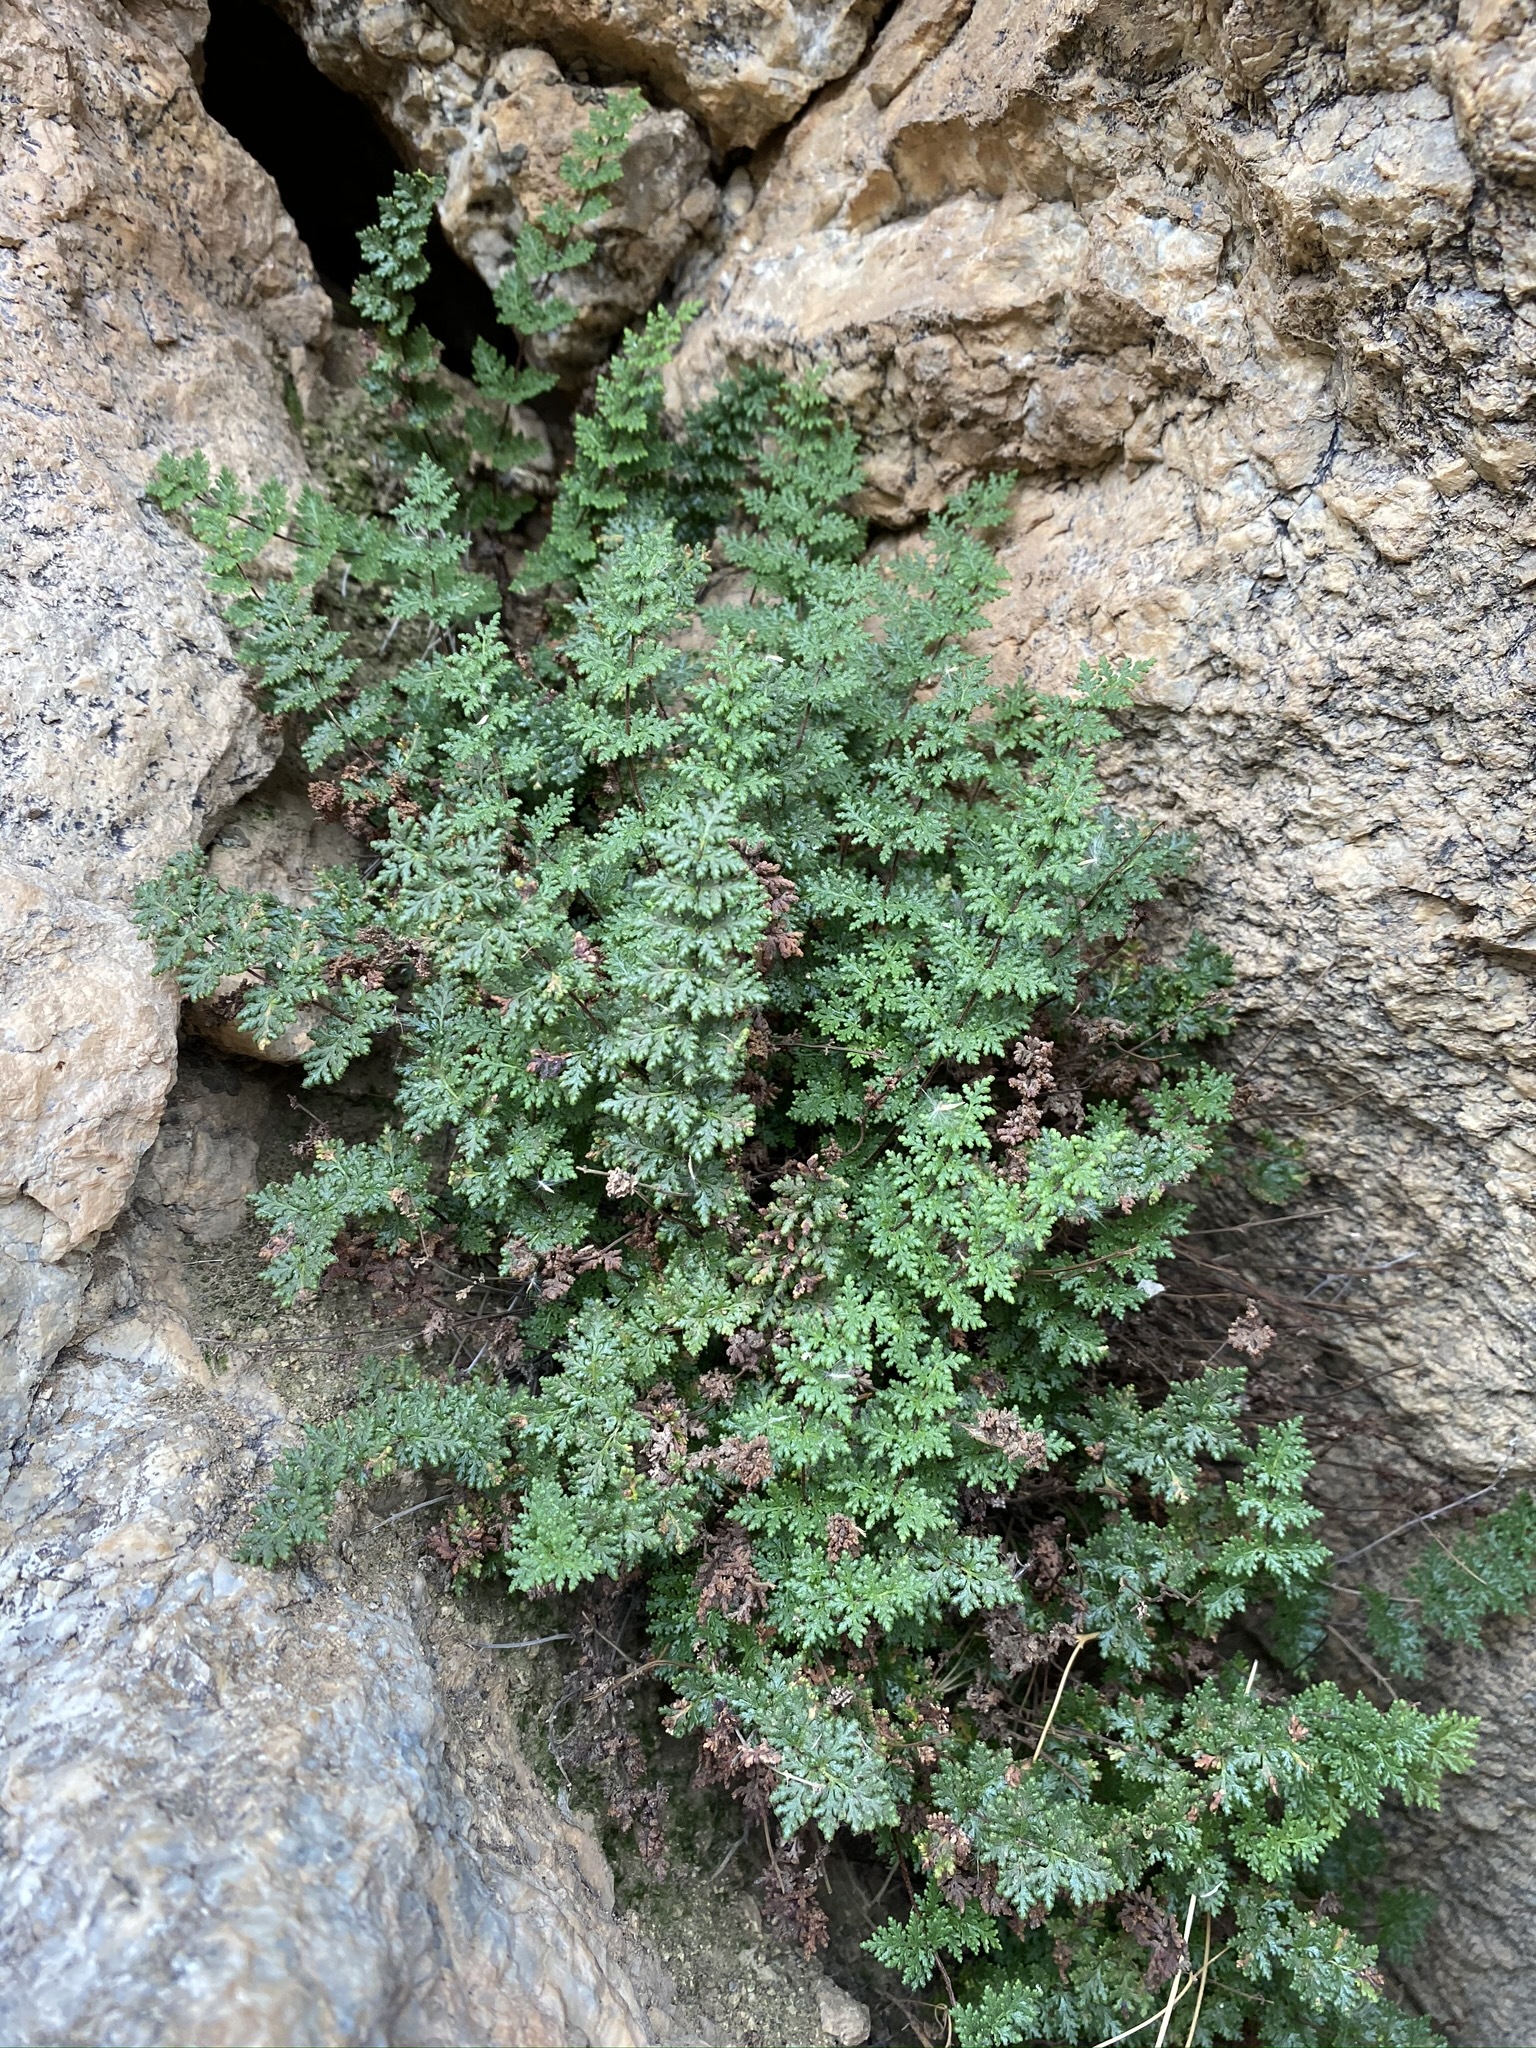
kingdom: Plantae
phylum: Tracheophyta
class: Polypodiopsida
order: Polypodiales
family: Pteridaceae
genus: Myriopteris
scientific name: Myriopteris viscida
